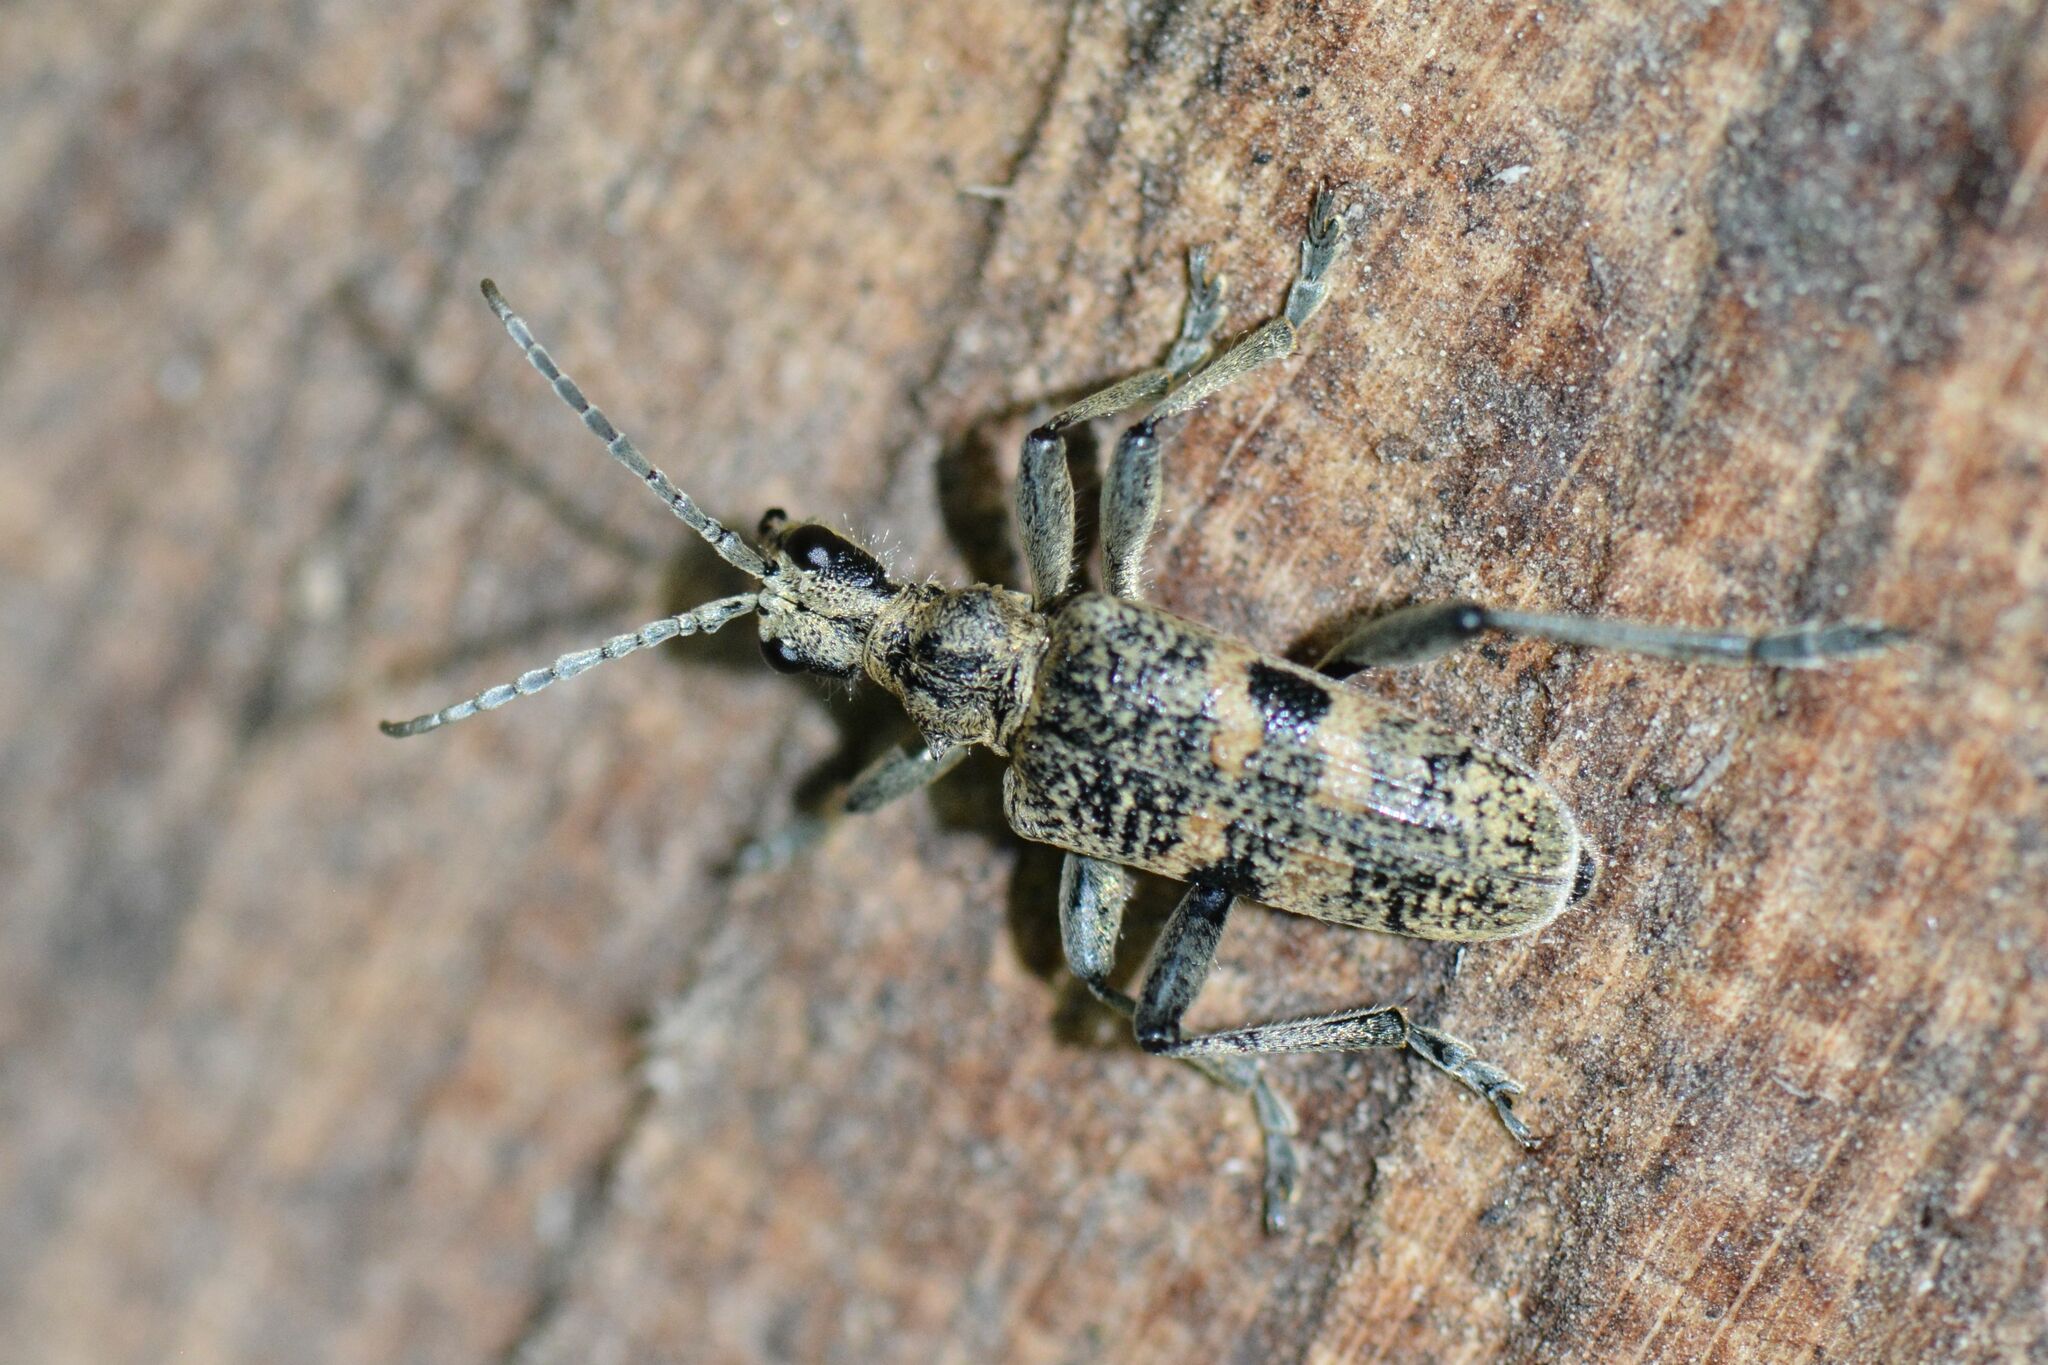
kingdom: Animalia
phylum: Arthropoda
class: Insecta
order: Coleoptera
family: Cerambycidae
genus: Rhagium
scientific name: Rhagium mordax
